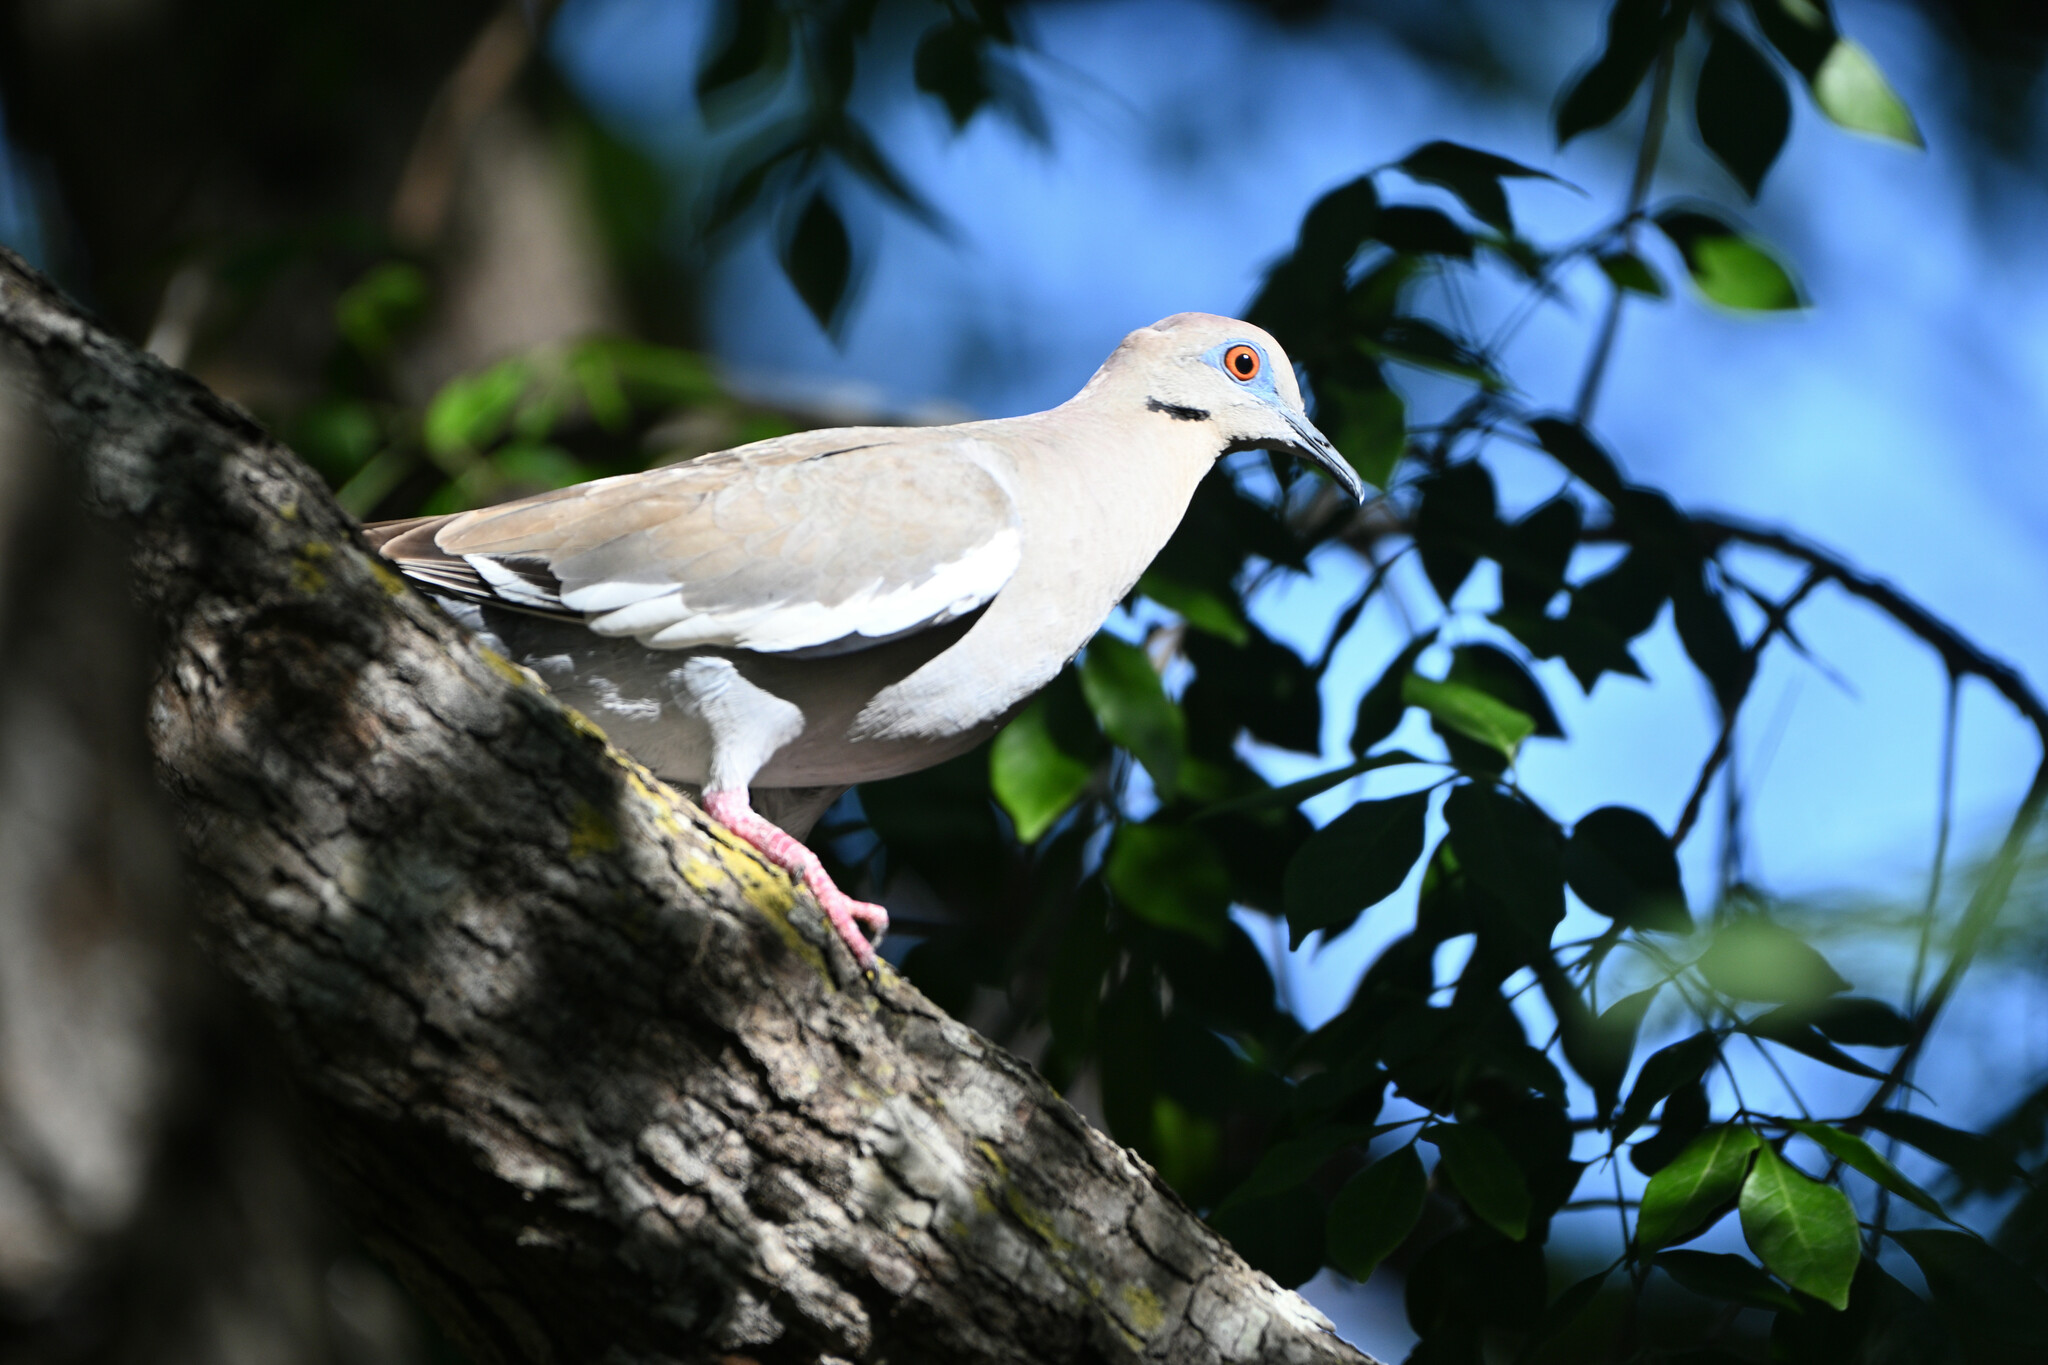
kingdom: Animalia
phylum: Chordata
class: Aves
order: Columbiformes
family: Columbidae
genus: Zenaida
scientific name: Zenaida asiatica
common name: White-winged dove
